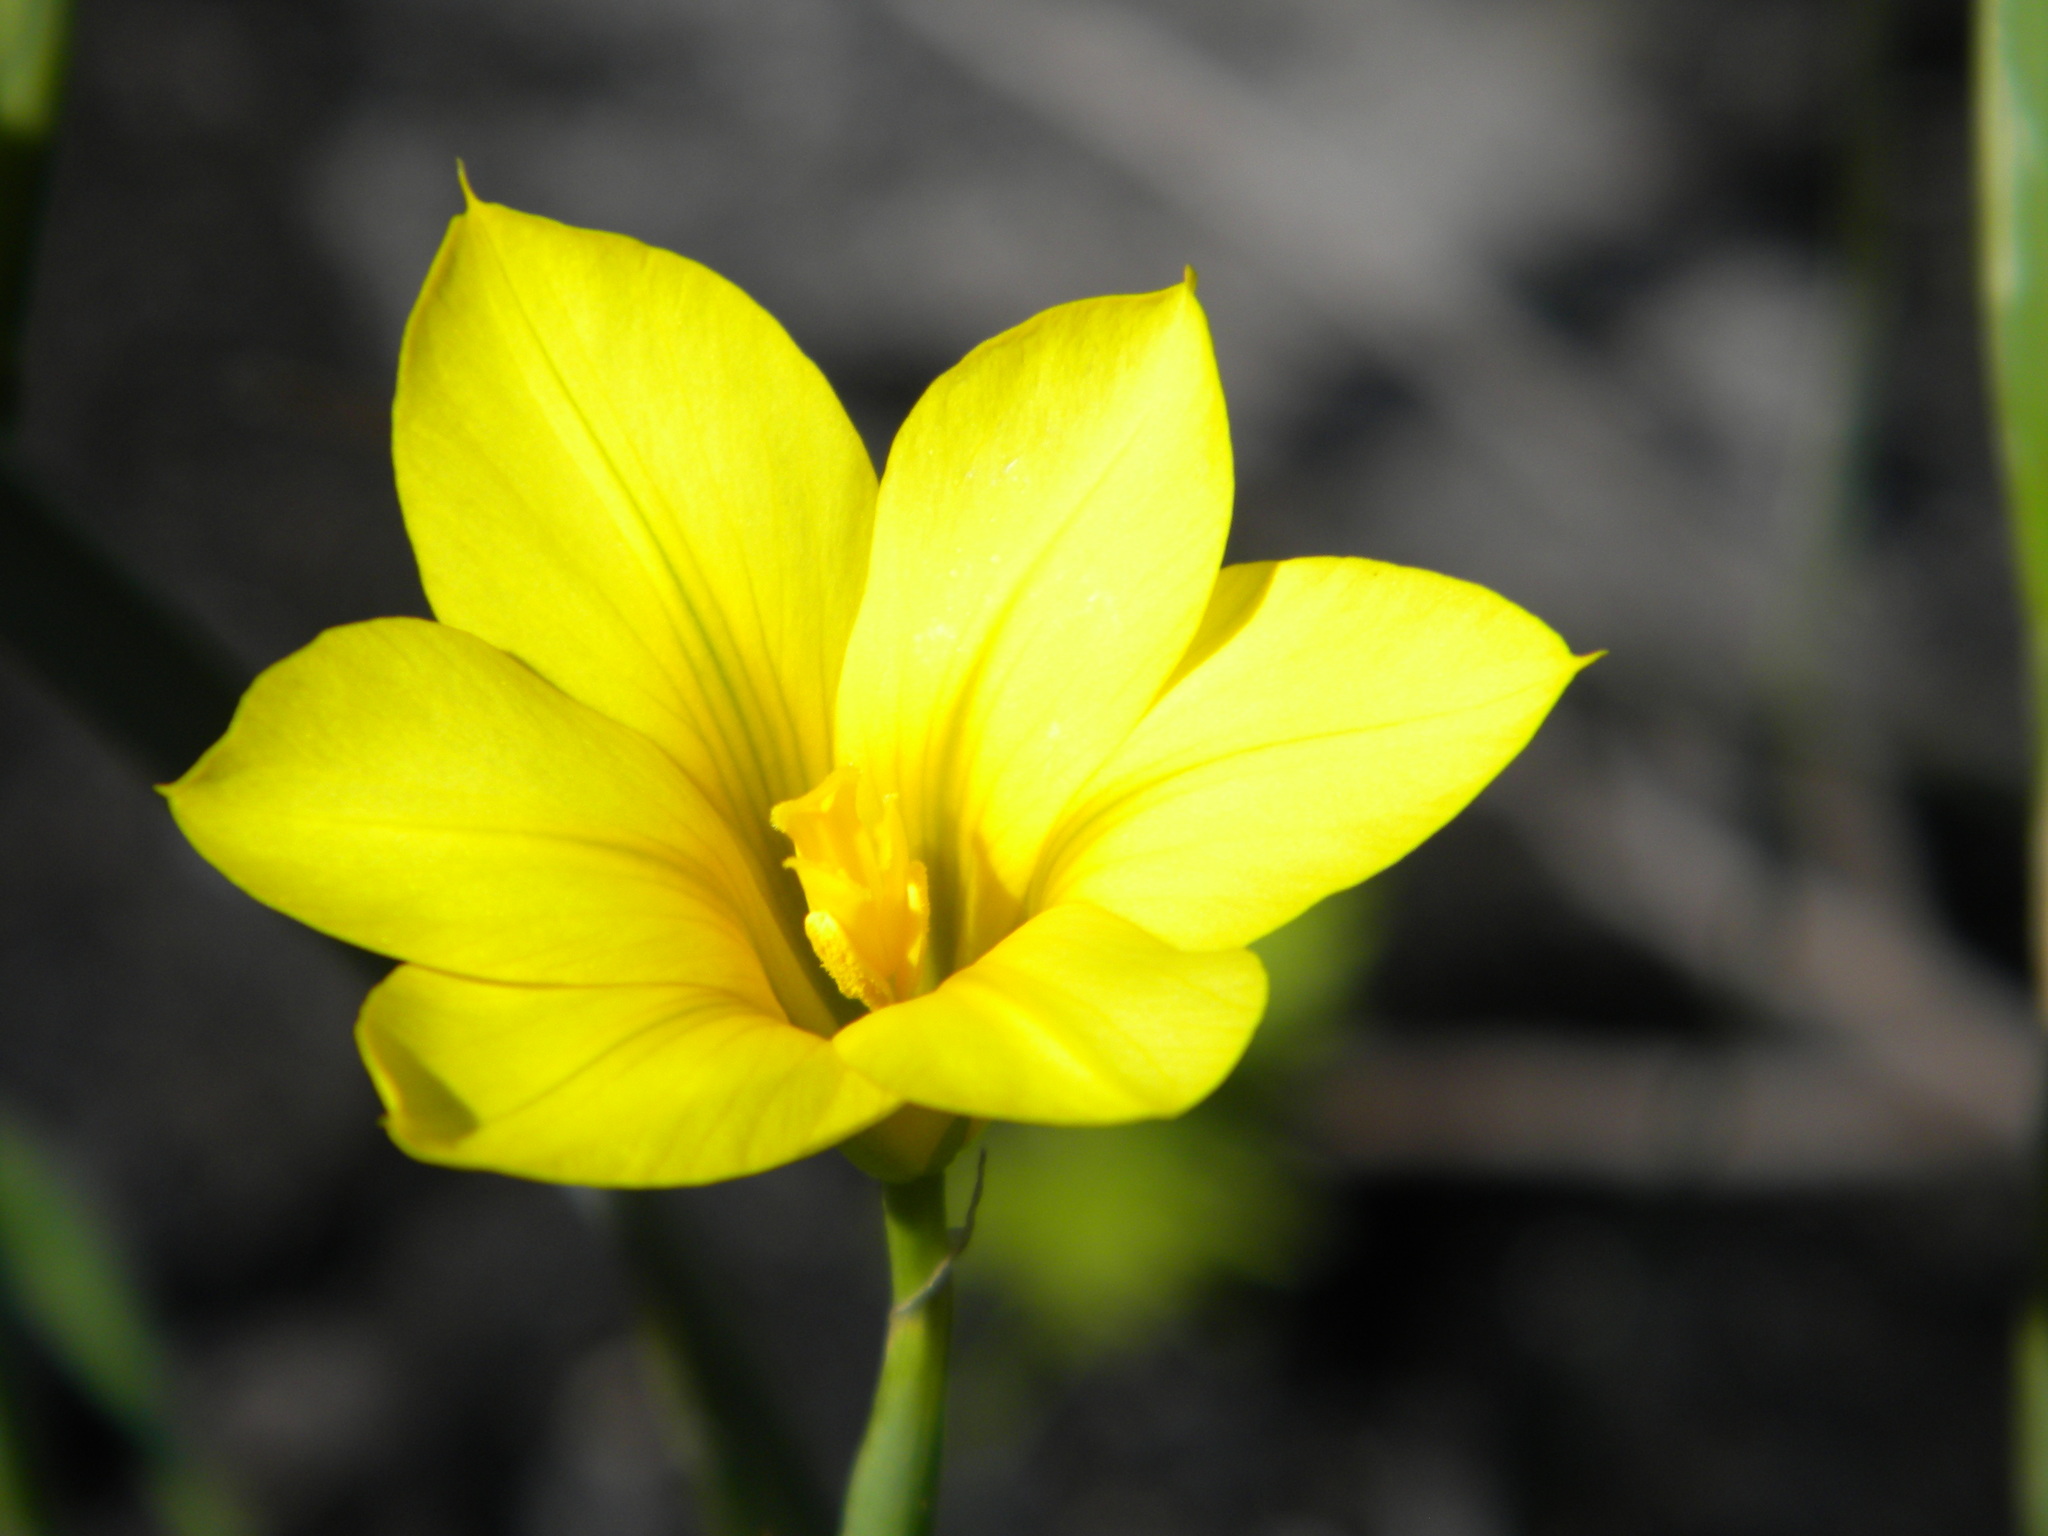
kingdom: Plantae
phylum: Tracheophyta
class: Liliopsida
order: Asparagales
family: Iridaceae
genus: Moraea
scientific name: Moraea ochroleuca
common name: Red tulp
